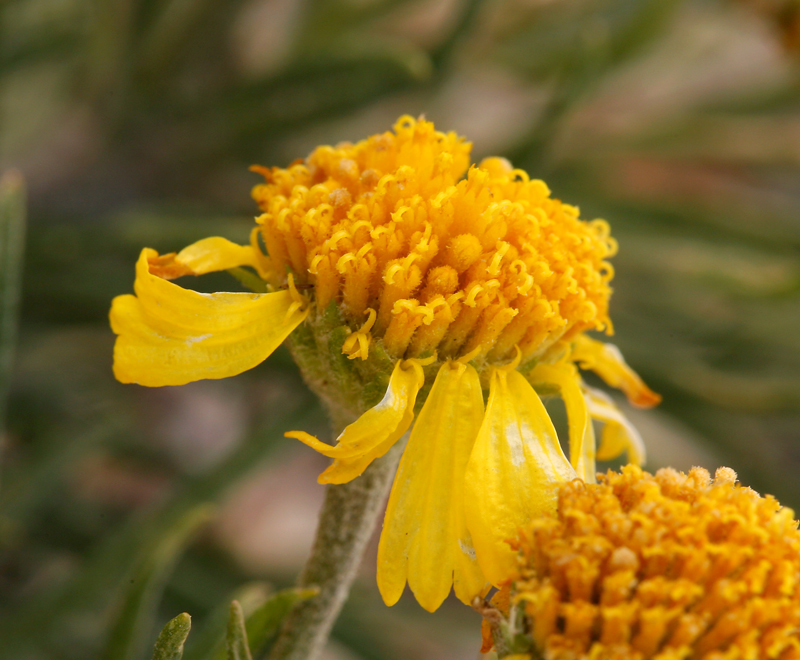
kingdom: Plantae
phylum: Tracheophyta
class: Magnoliopsida
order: Asterales
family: Asteraceae
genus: Hymenoxys
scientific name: Hymenoxys cooperi
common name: Cooper's bitterweed
